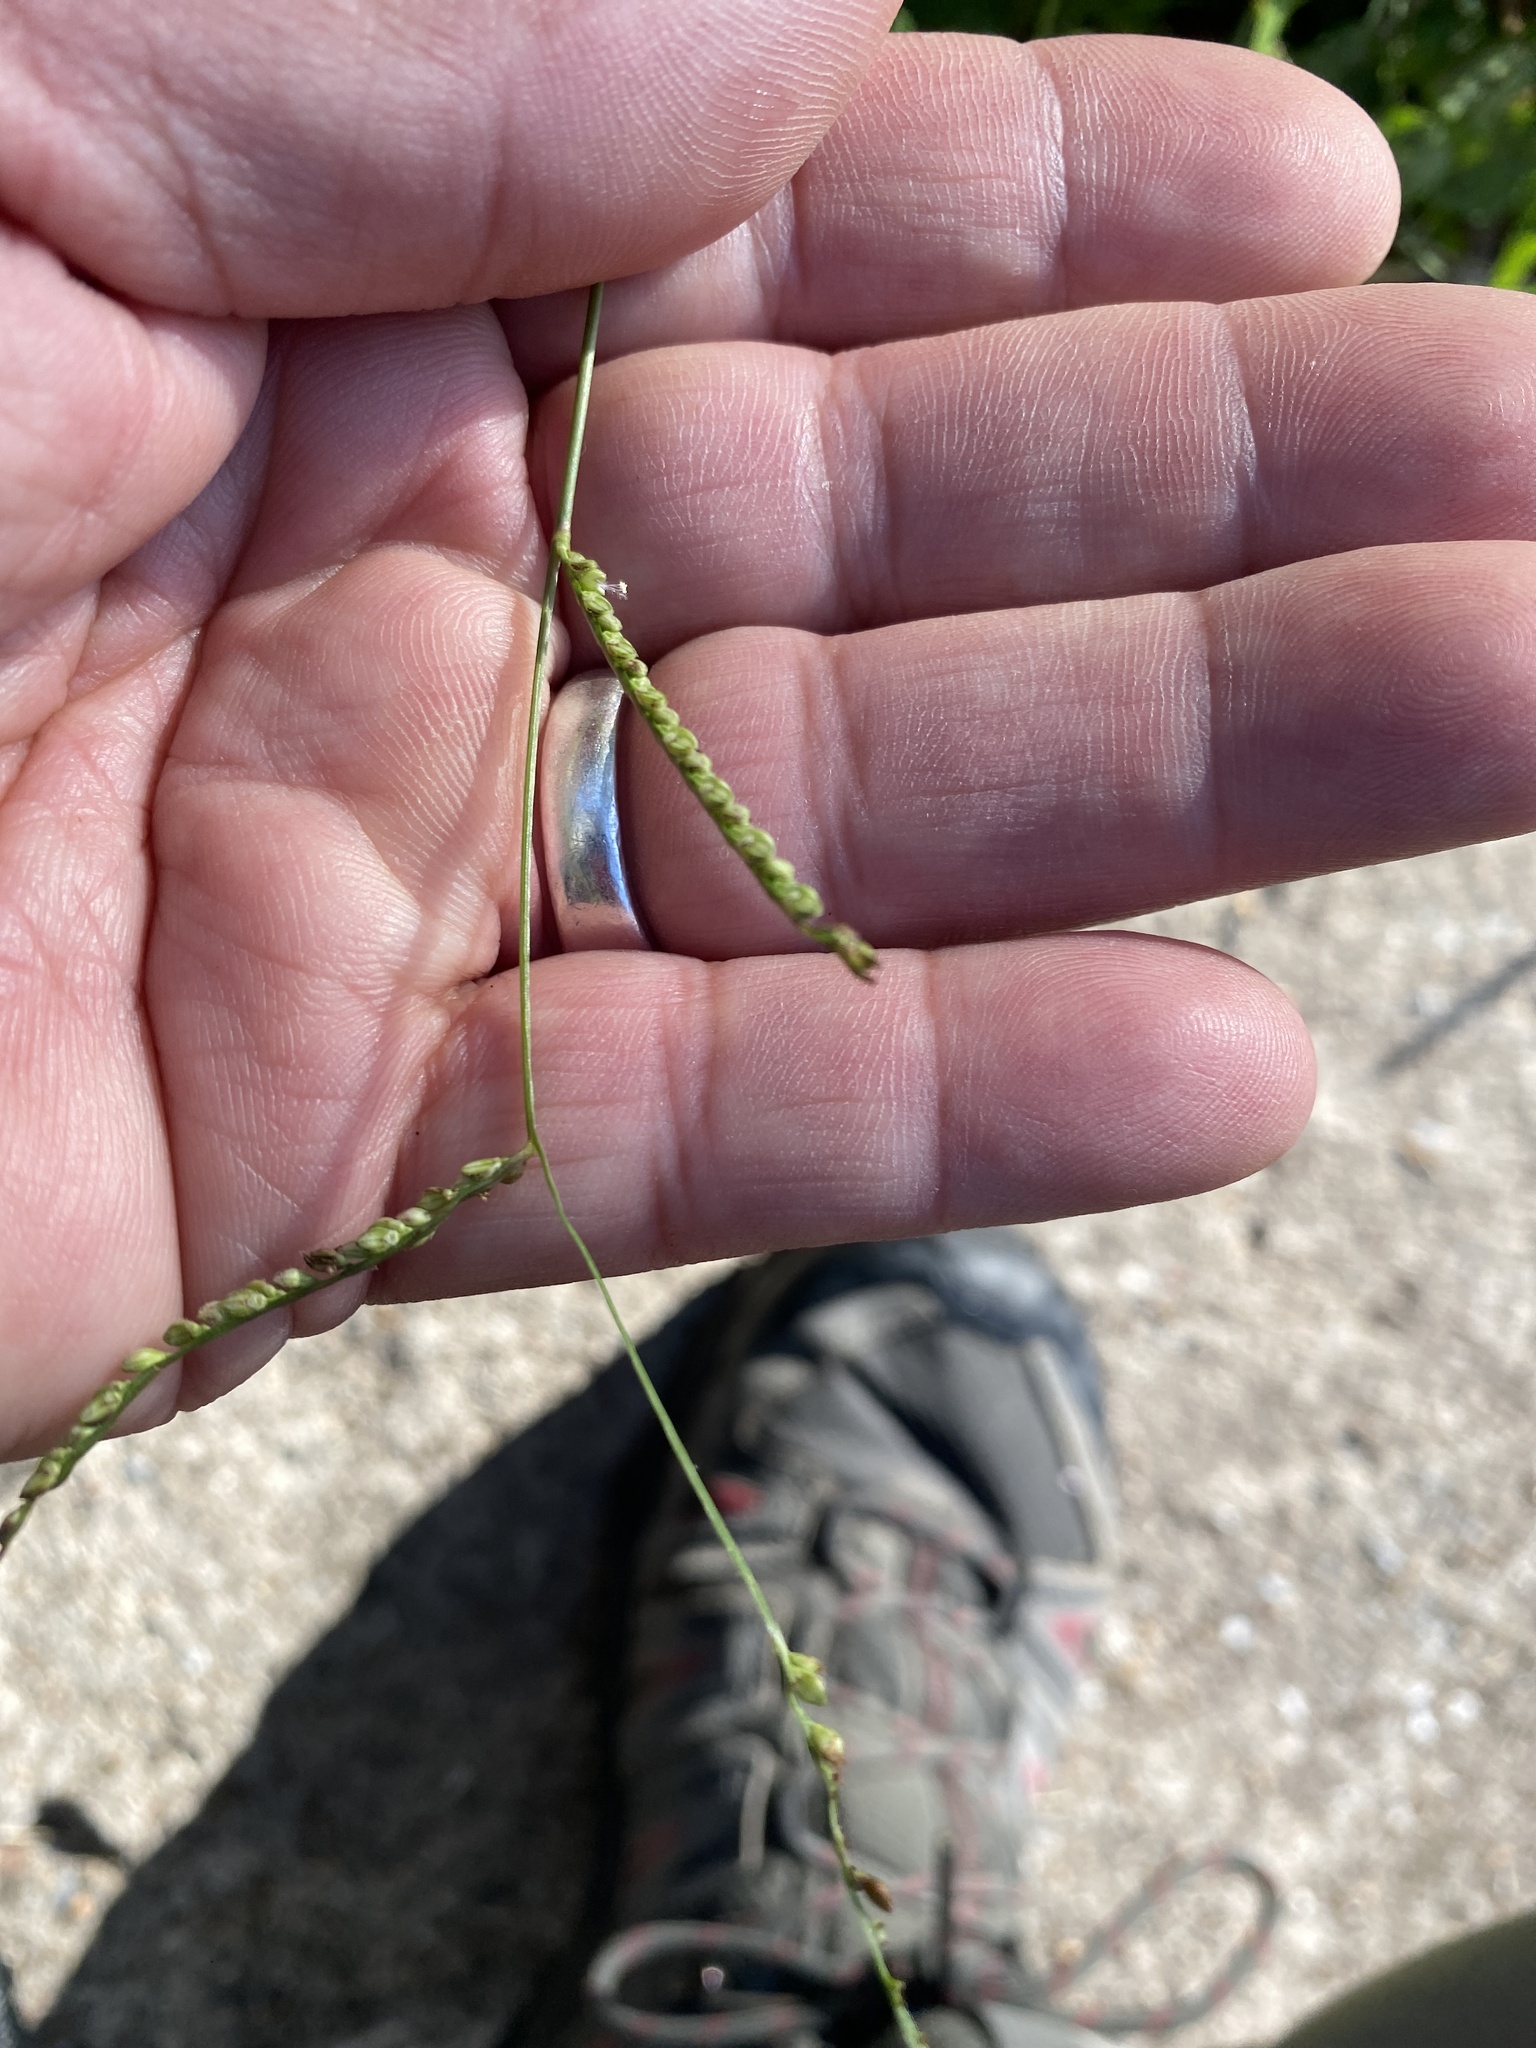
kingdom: Plantae
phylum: Tracheophyta
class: Liliopsida
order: Poales
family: Poaceae
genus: Paspalum
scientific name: Paspalum langei
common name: Rusty-seed paspalum
